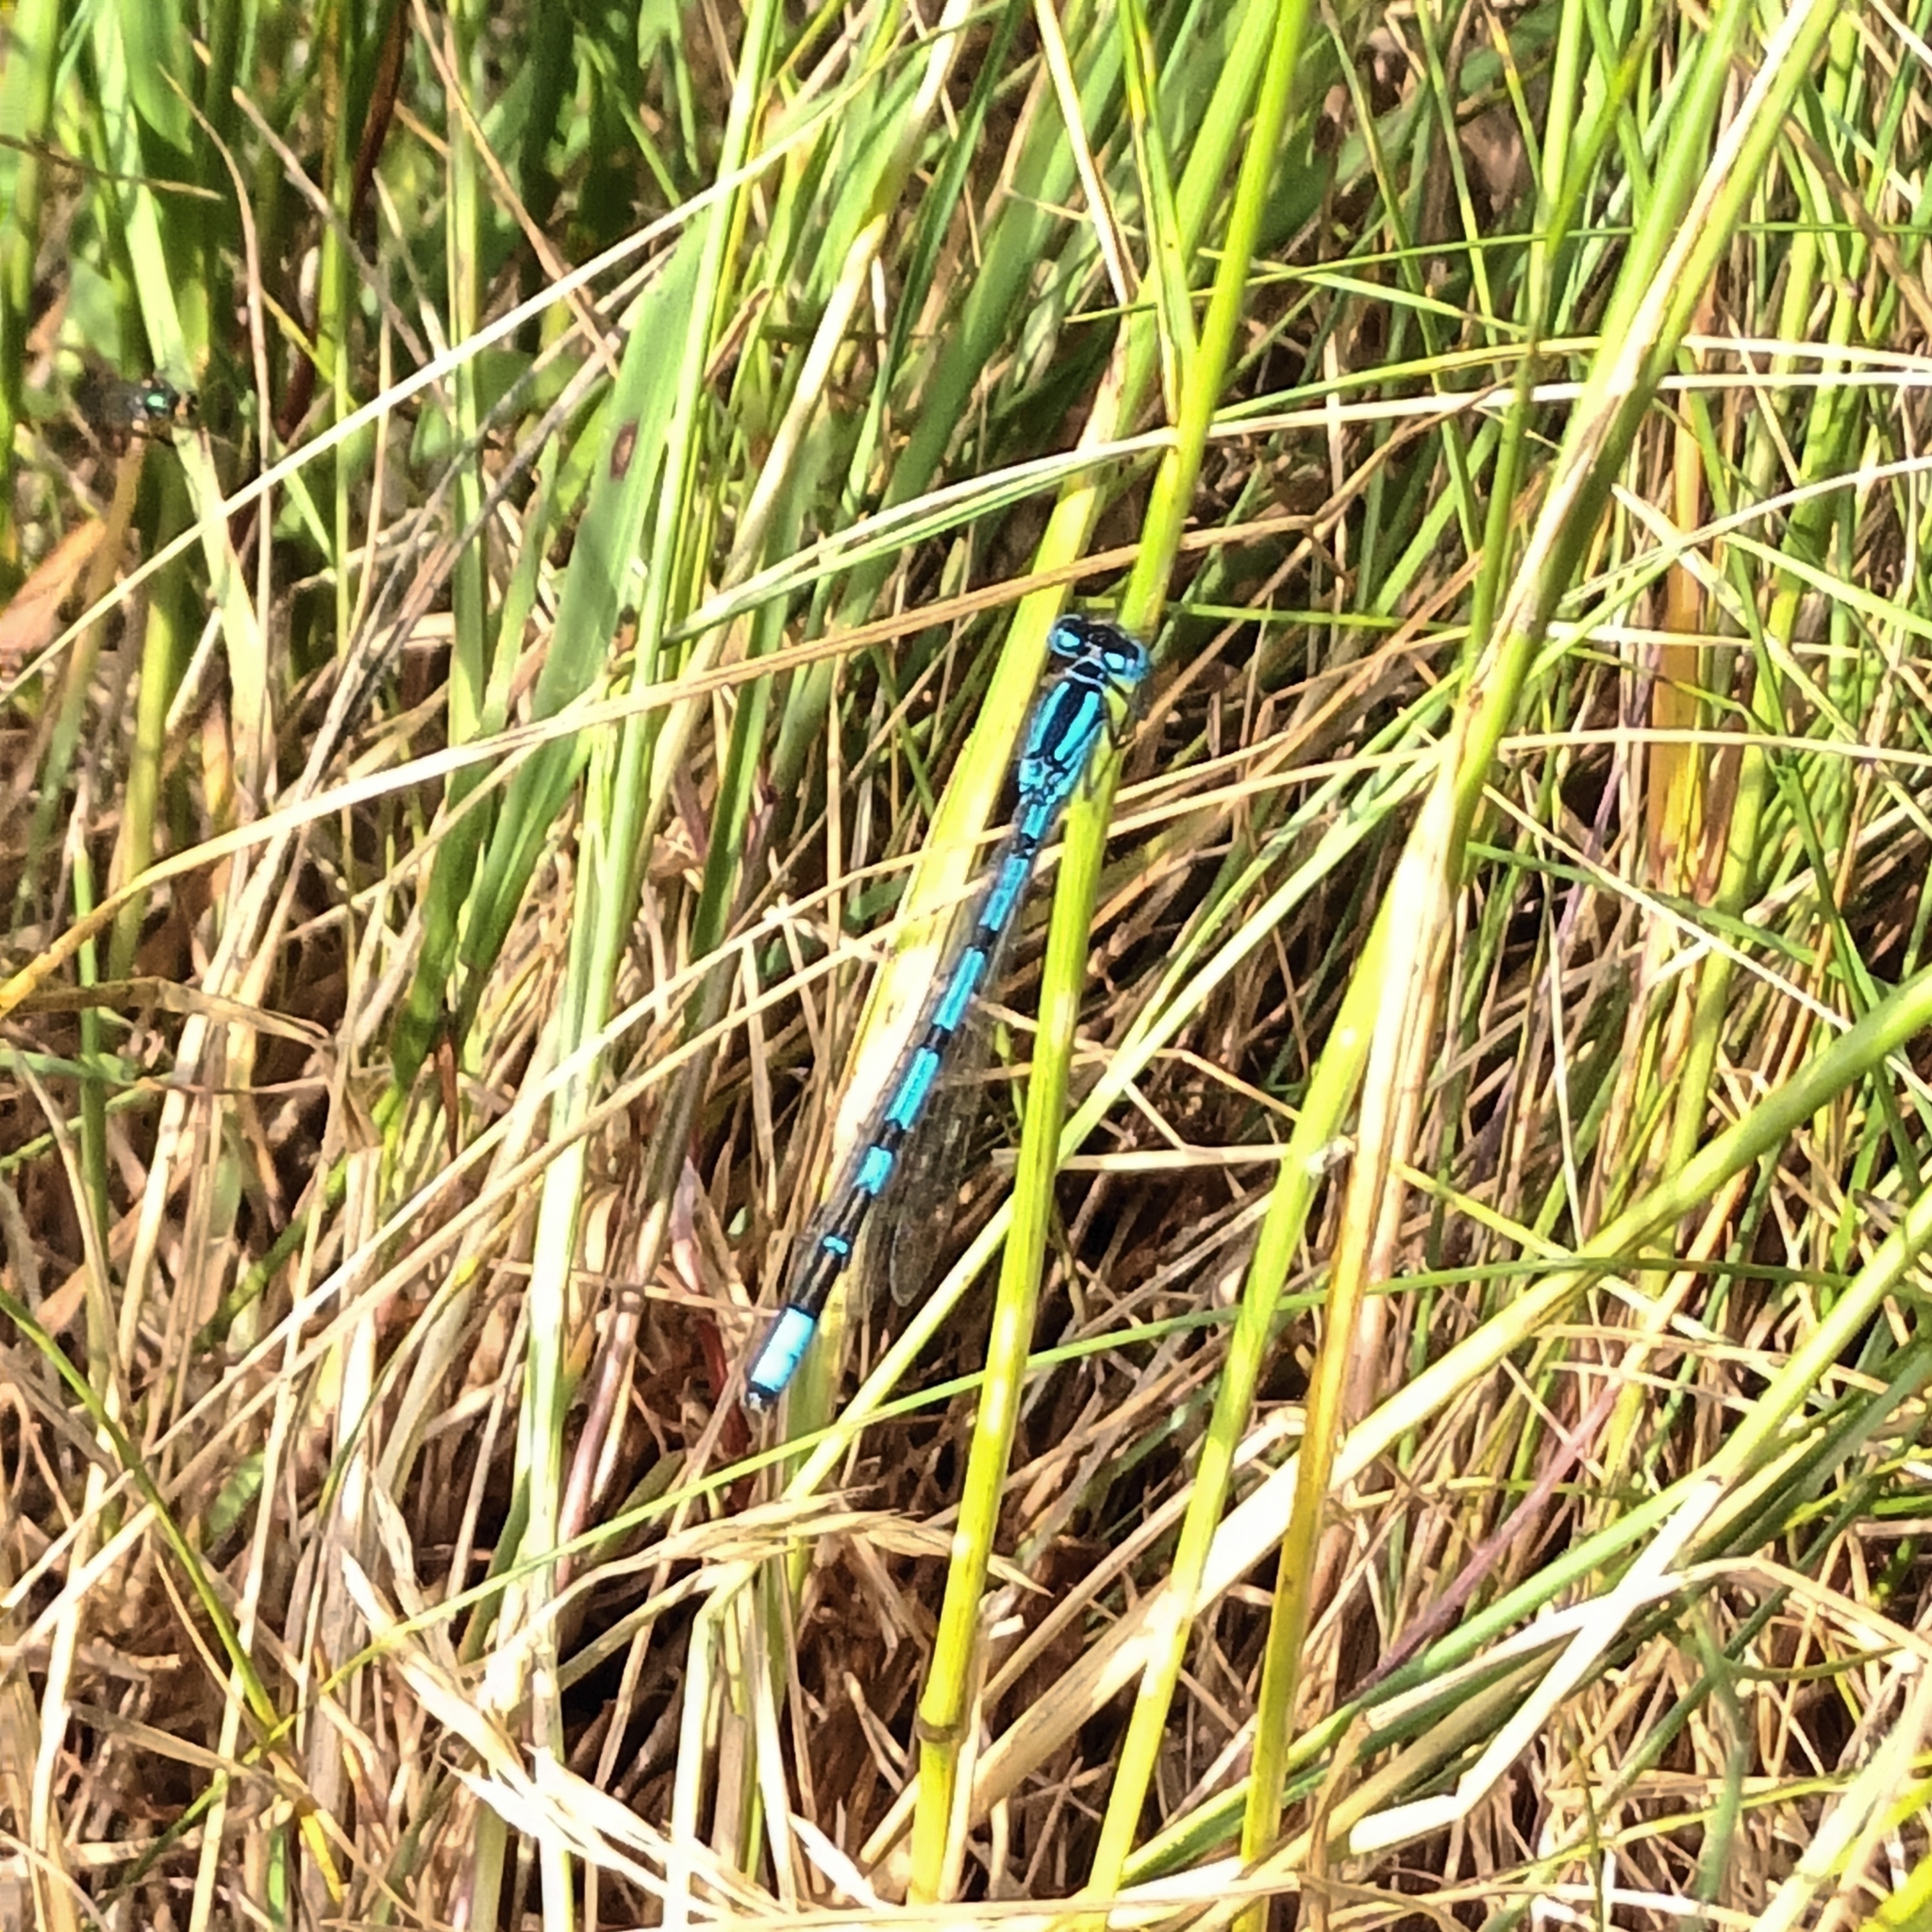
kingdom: Animalia
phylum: Arthropoda
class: Insecta
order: Odonata
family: Coenagrionidae
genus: Enallagma
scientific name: Enallagma cyathigerum
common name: Common blue damselfly
